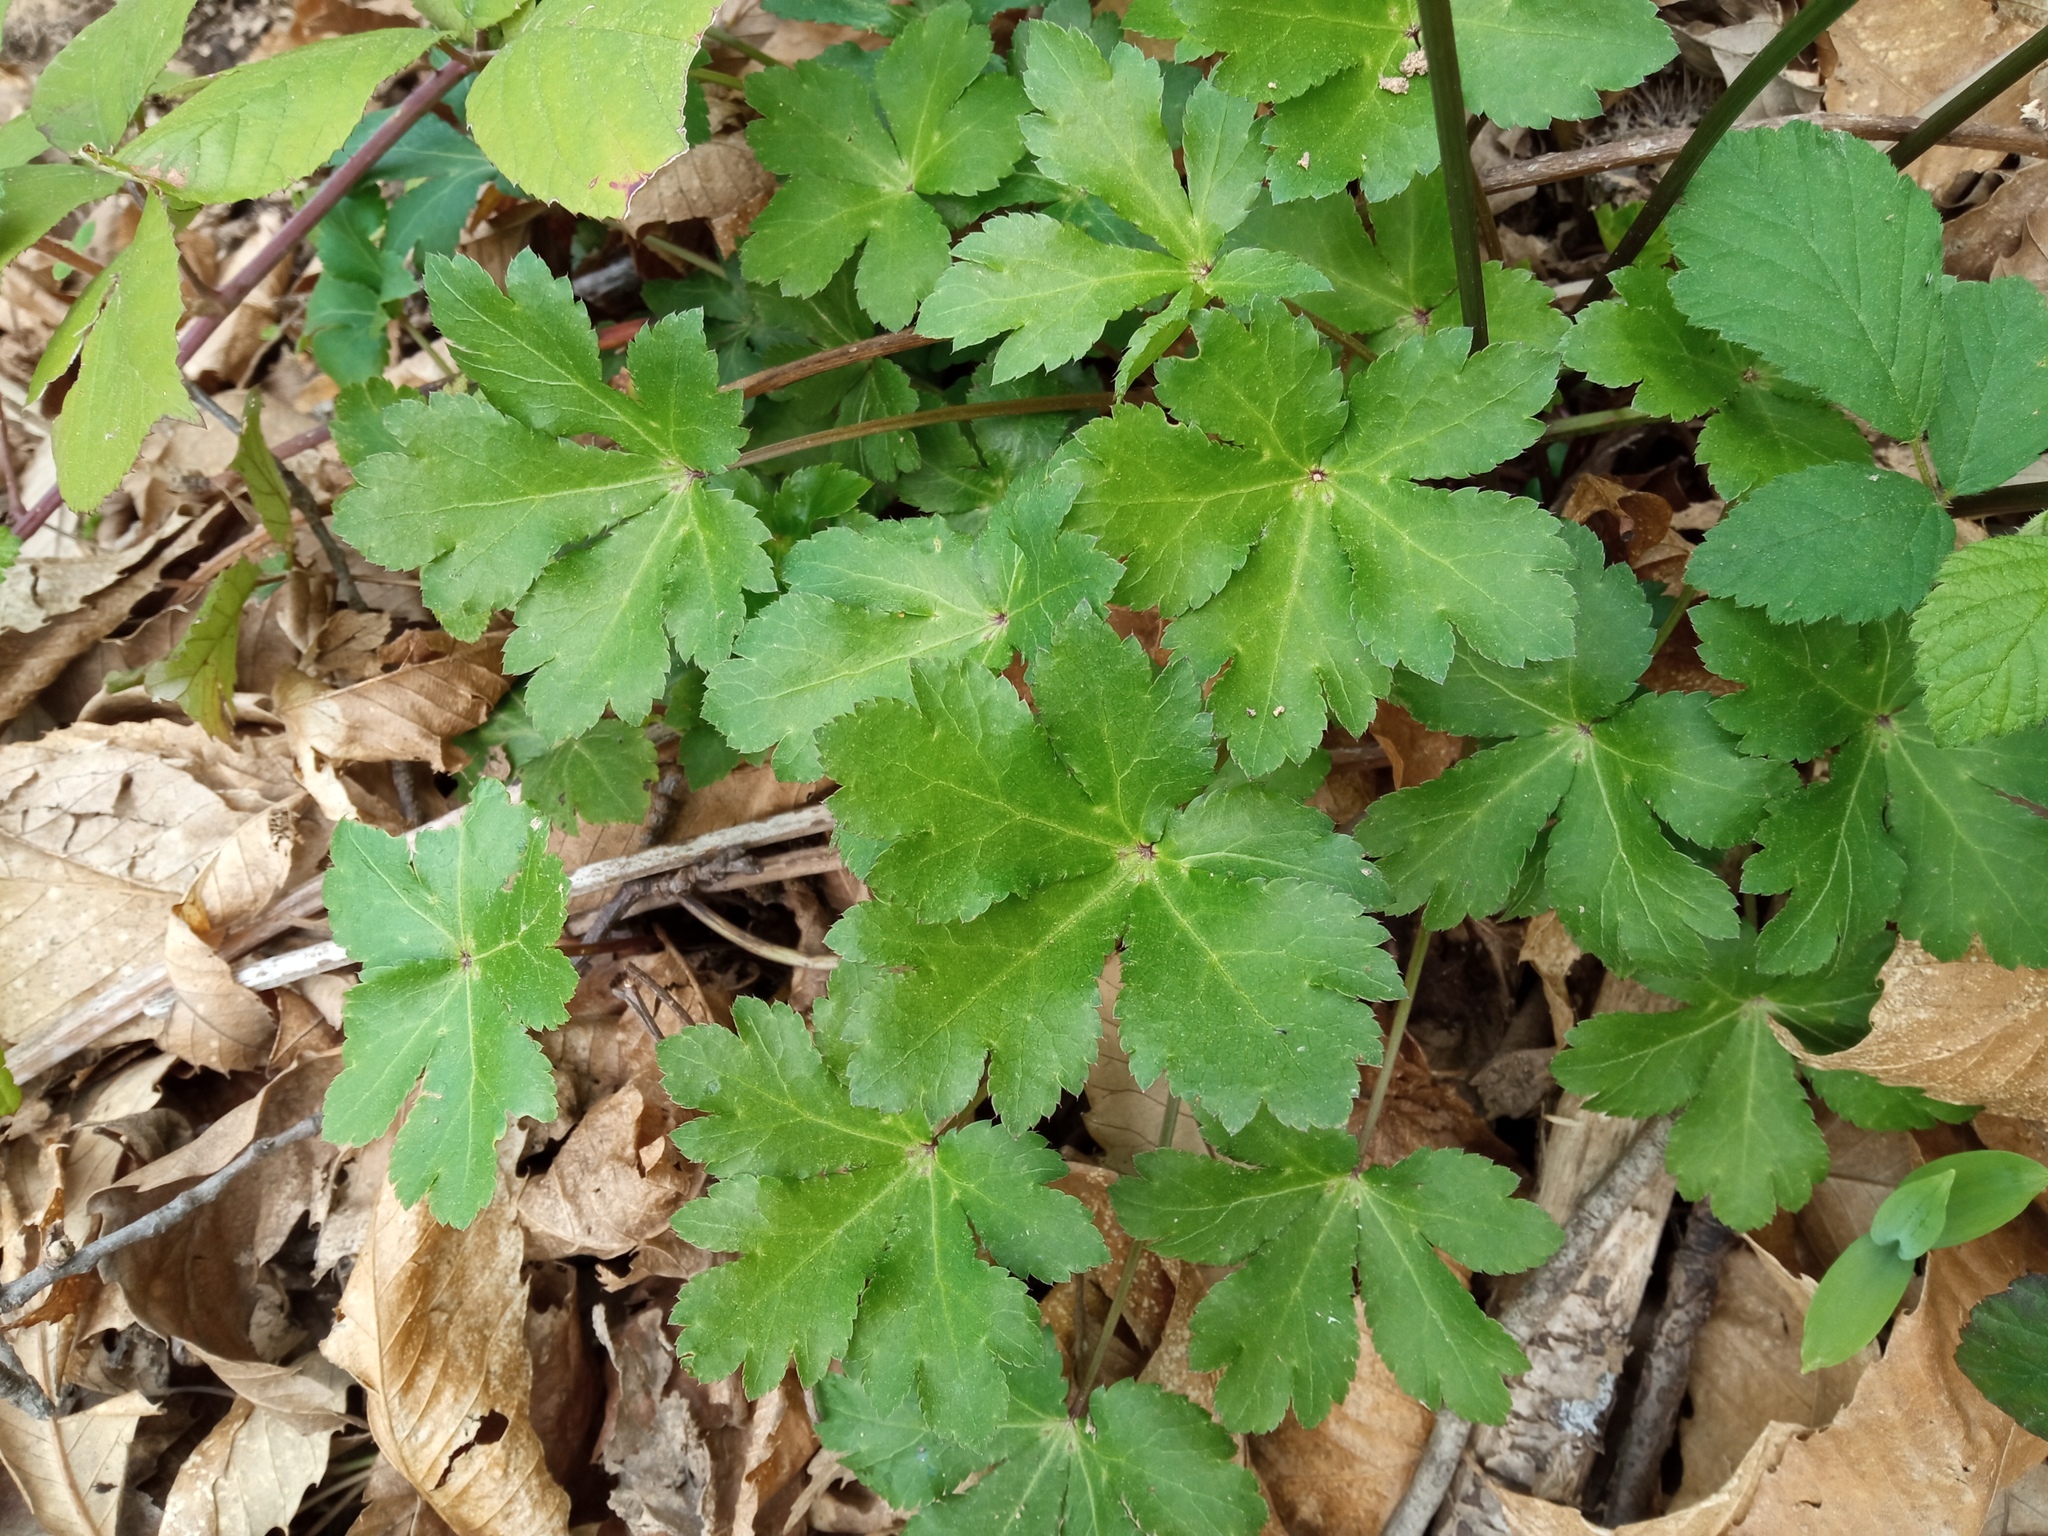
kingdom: Plantae
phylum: Tracheophyta
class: Magnoliopsida
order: Apiales
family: Apiaceae
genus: Sanicula
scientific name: Sanicula europaea
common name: Sanicle
